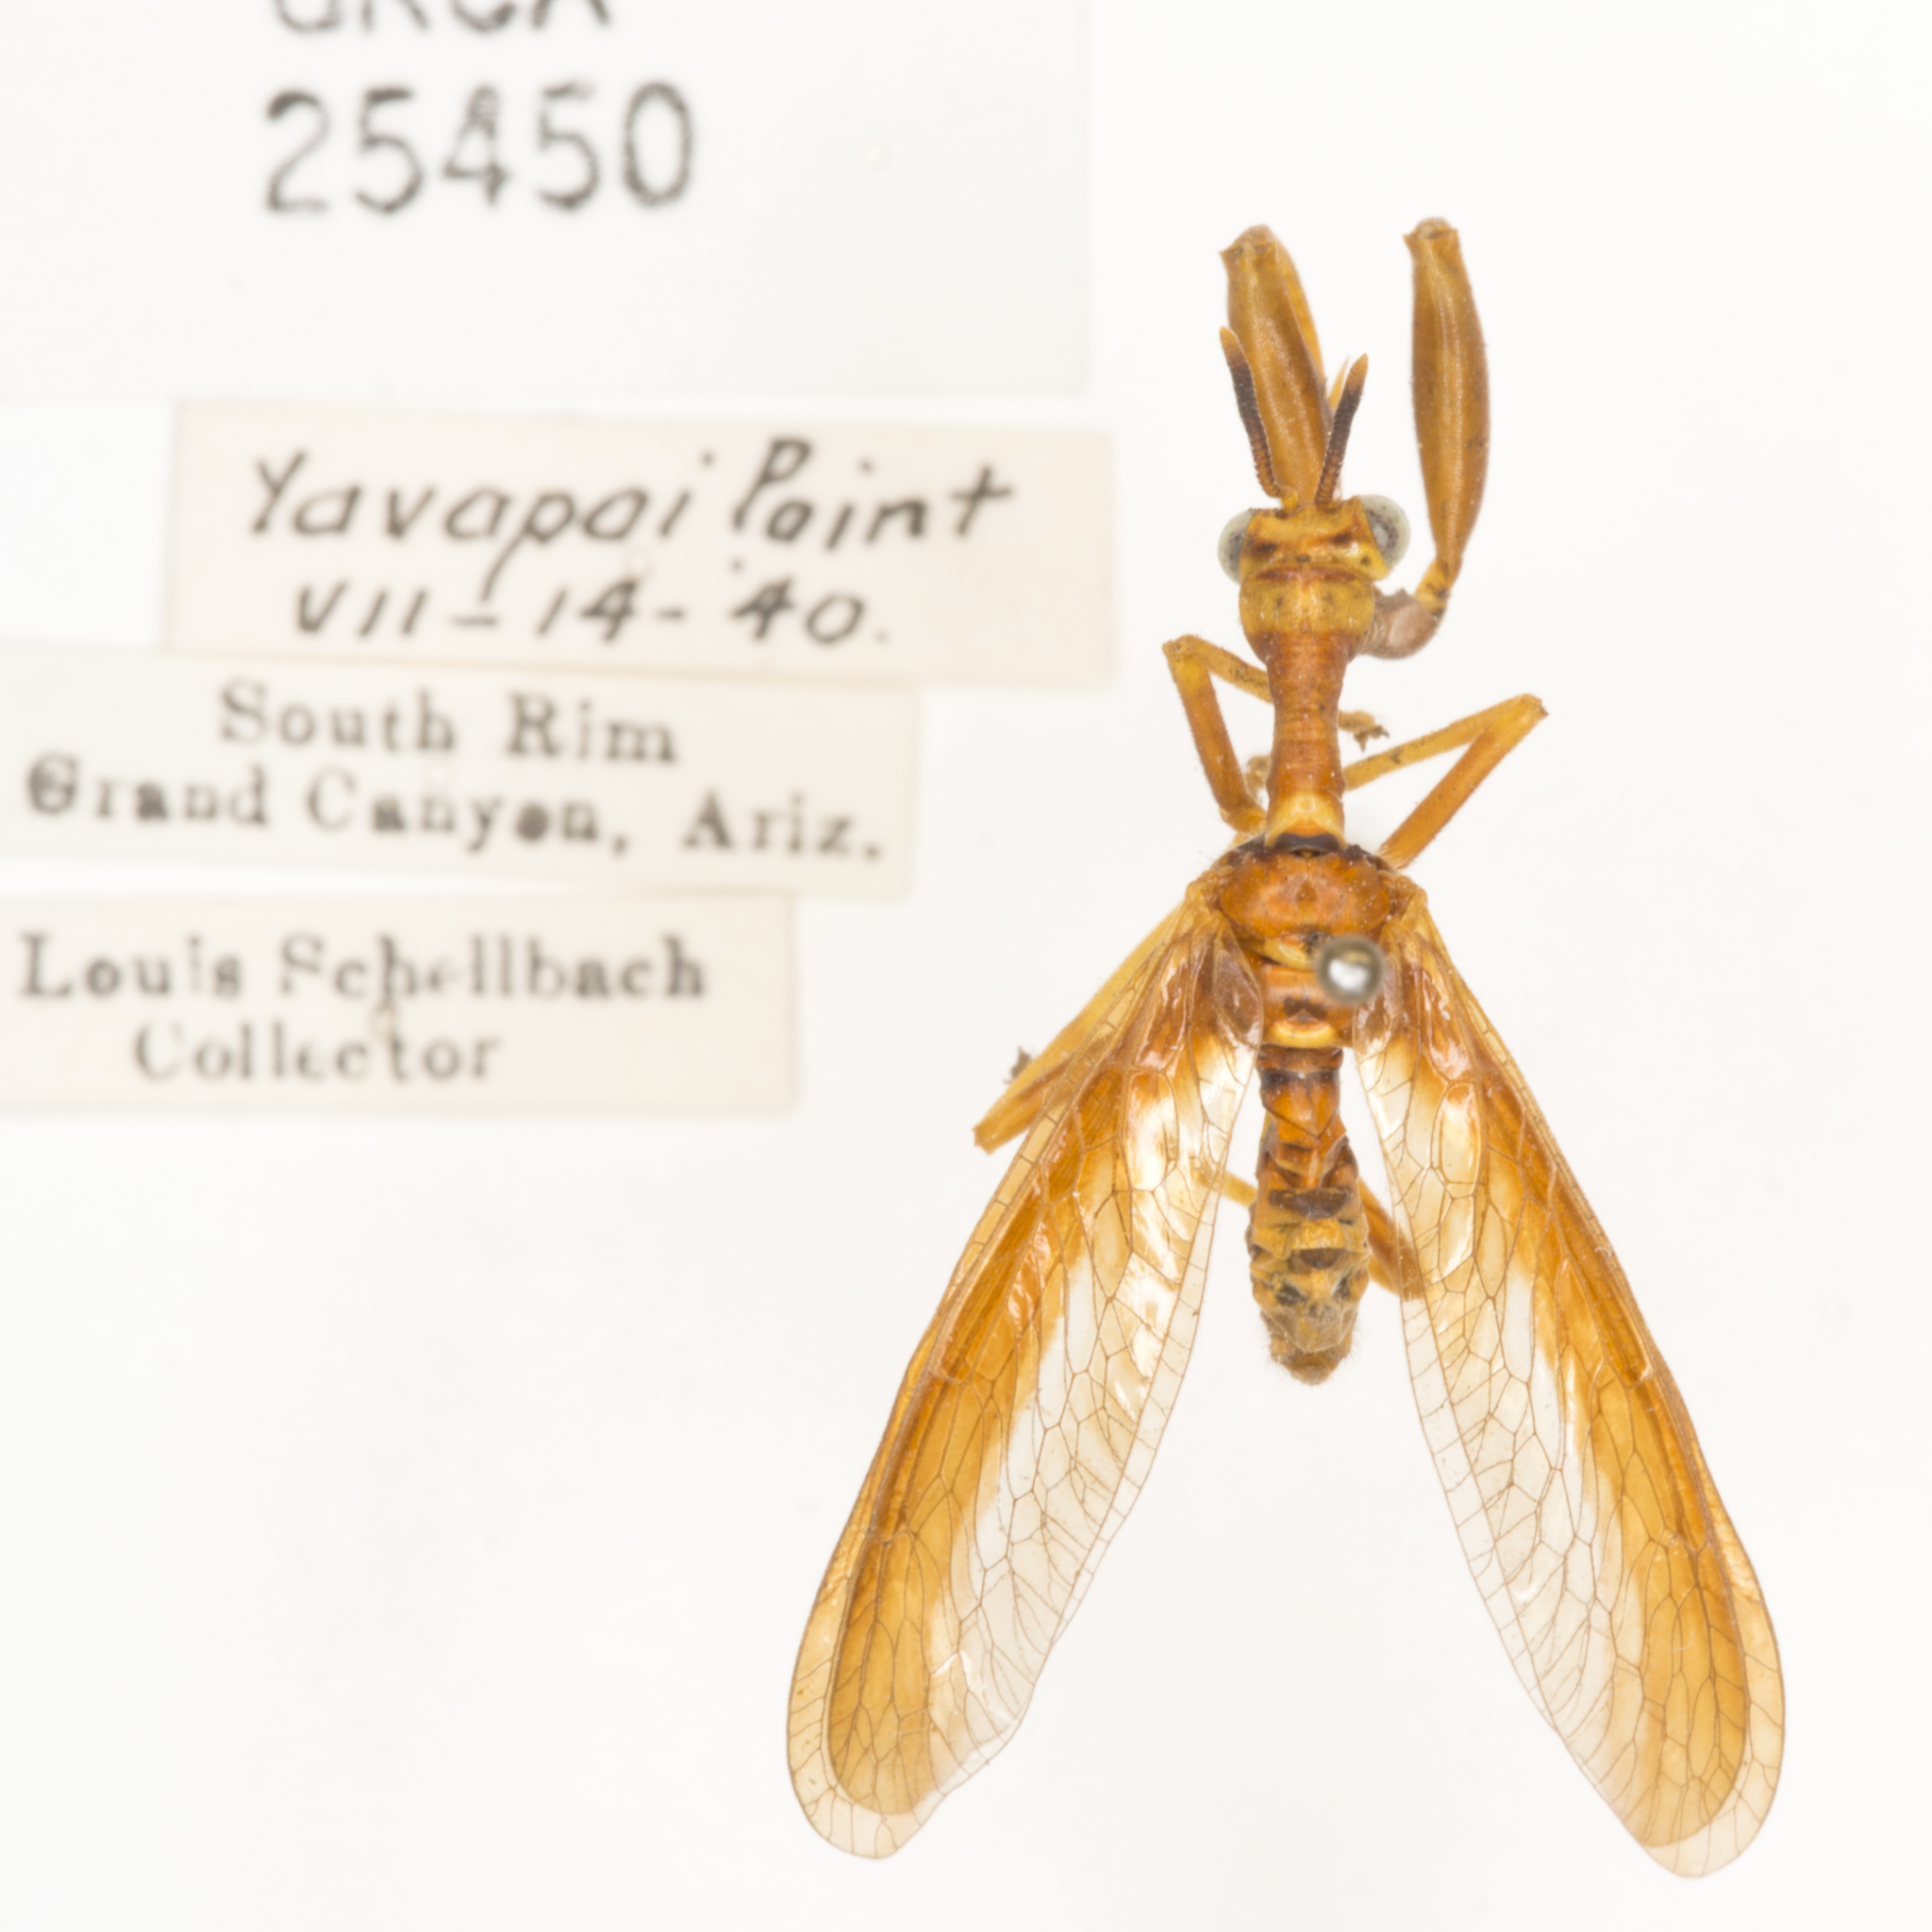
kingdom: Animalia
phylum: Arthropoda
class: Insecta
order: Neuroptera
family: Mantispidae
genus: Climaciella
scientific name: Climaciella brunnea
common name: Brown wasp mantidfly
